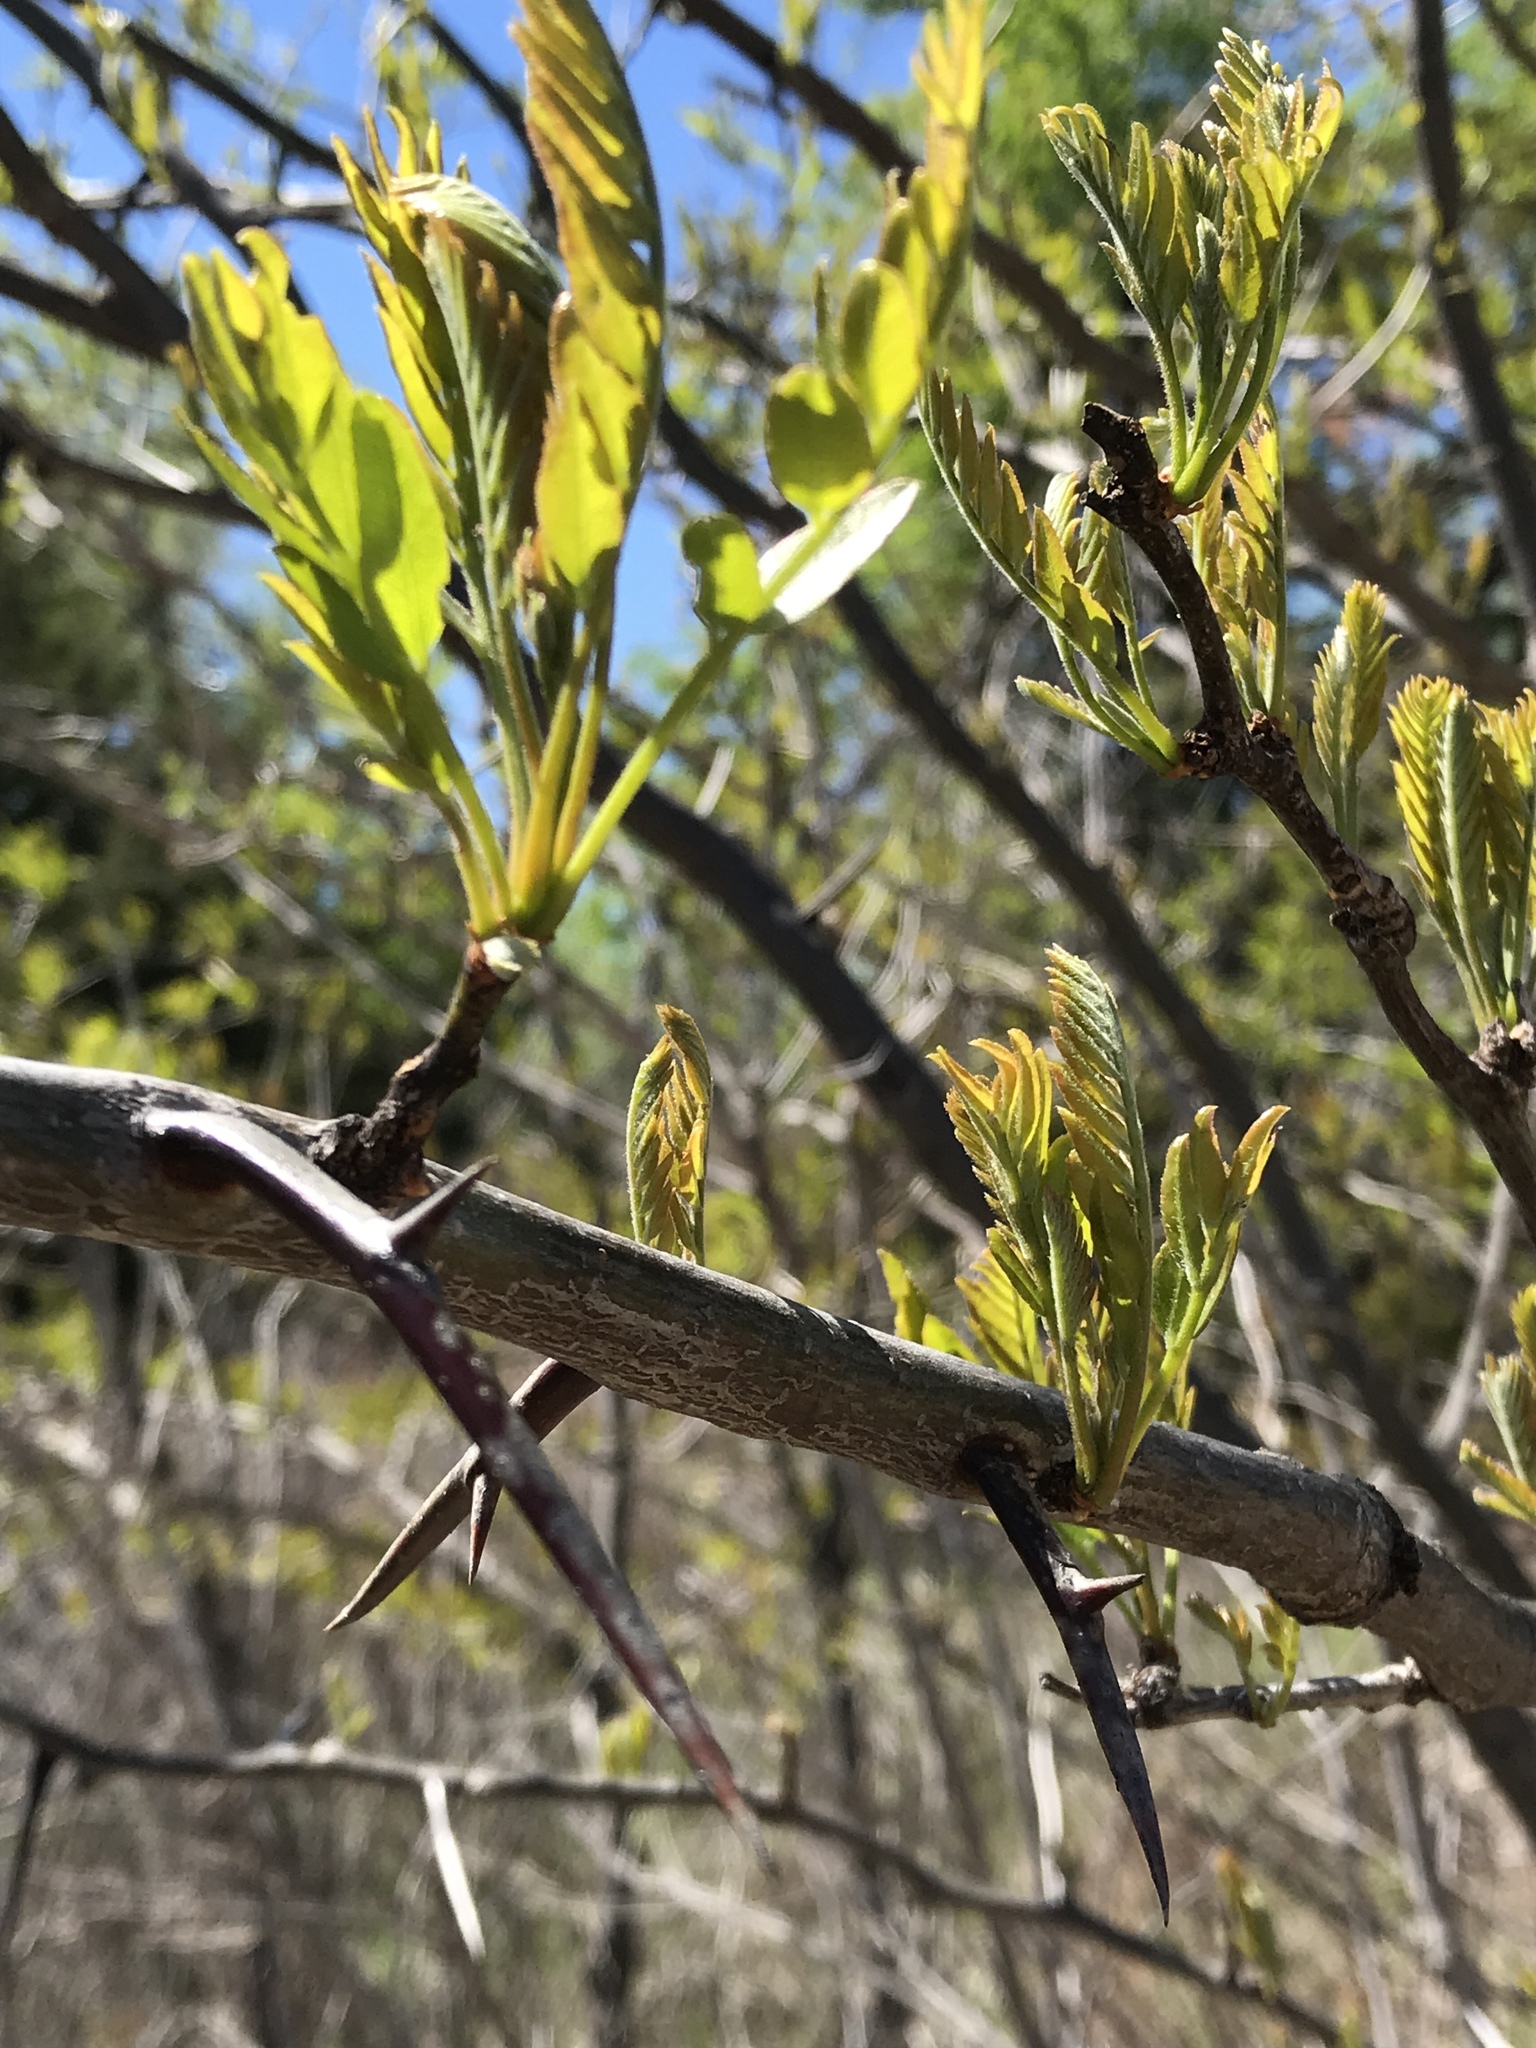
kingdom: Plantae
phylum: Tracheophyta
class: Magnoliopsida
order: Fabales
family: Fabaceae
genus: Robinia
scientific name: Robinia pseudoacacia
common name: Black locust
